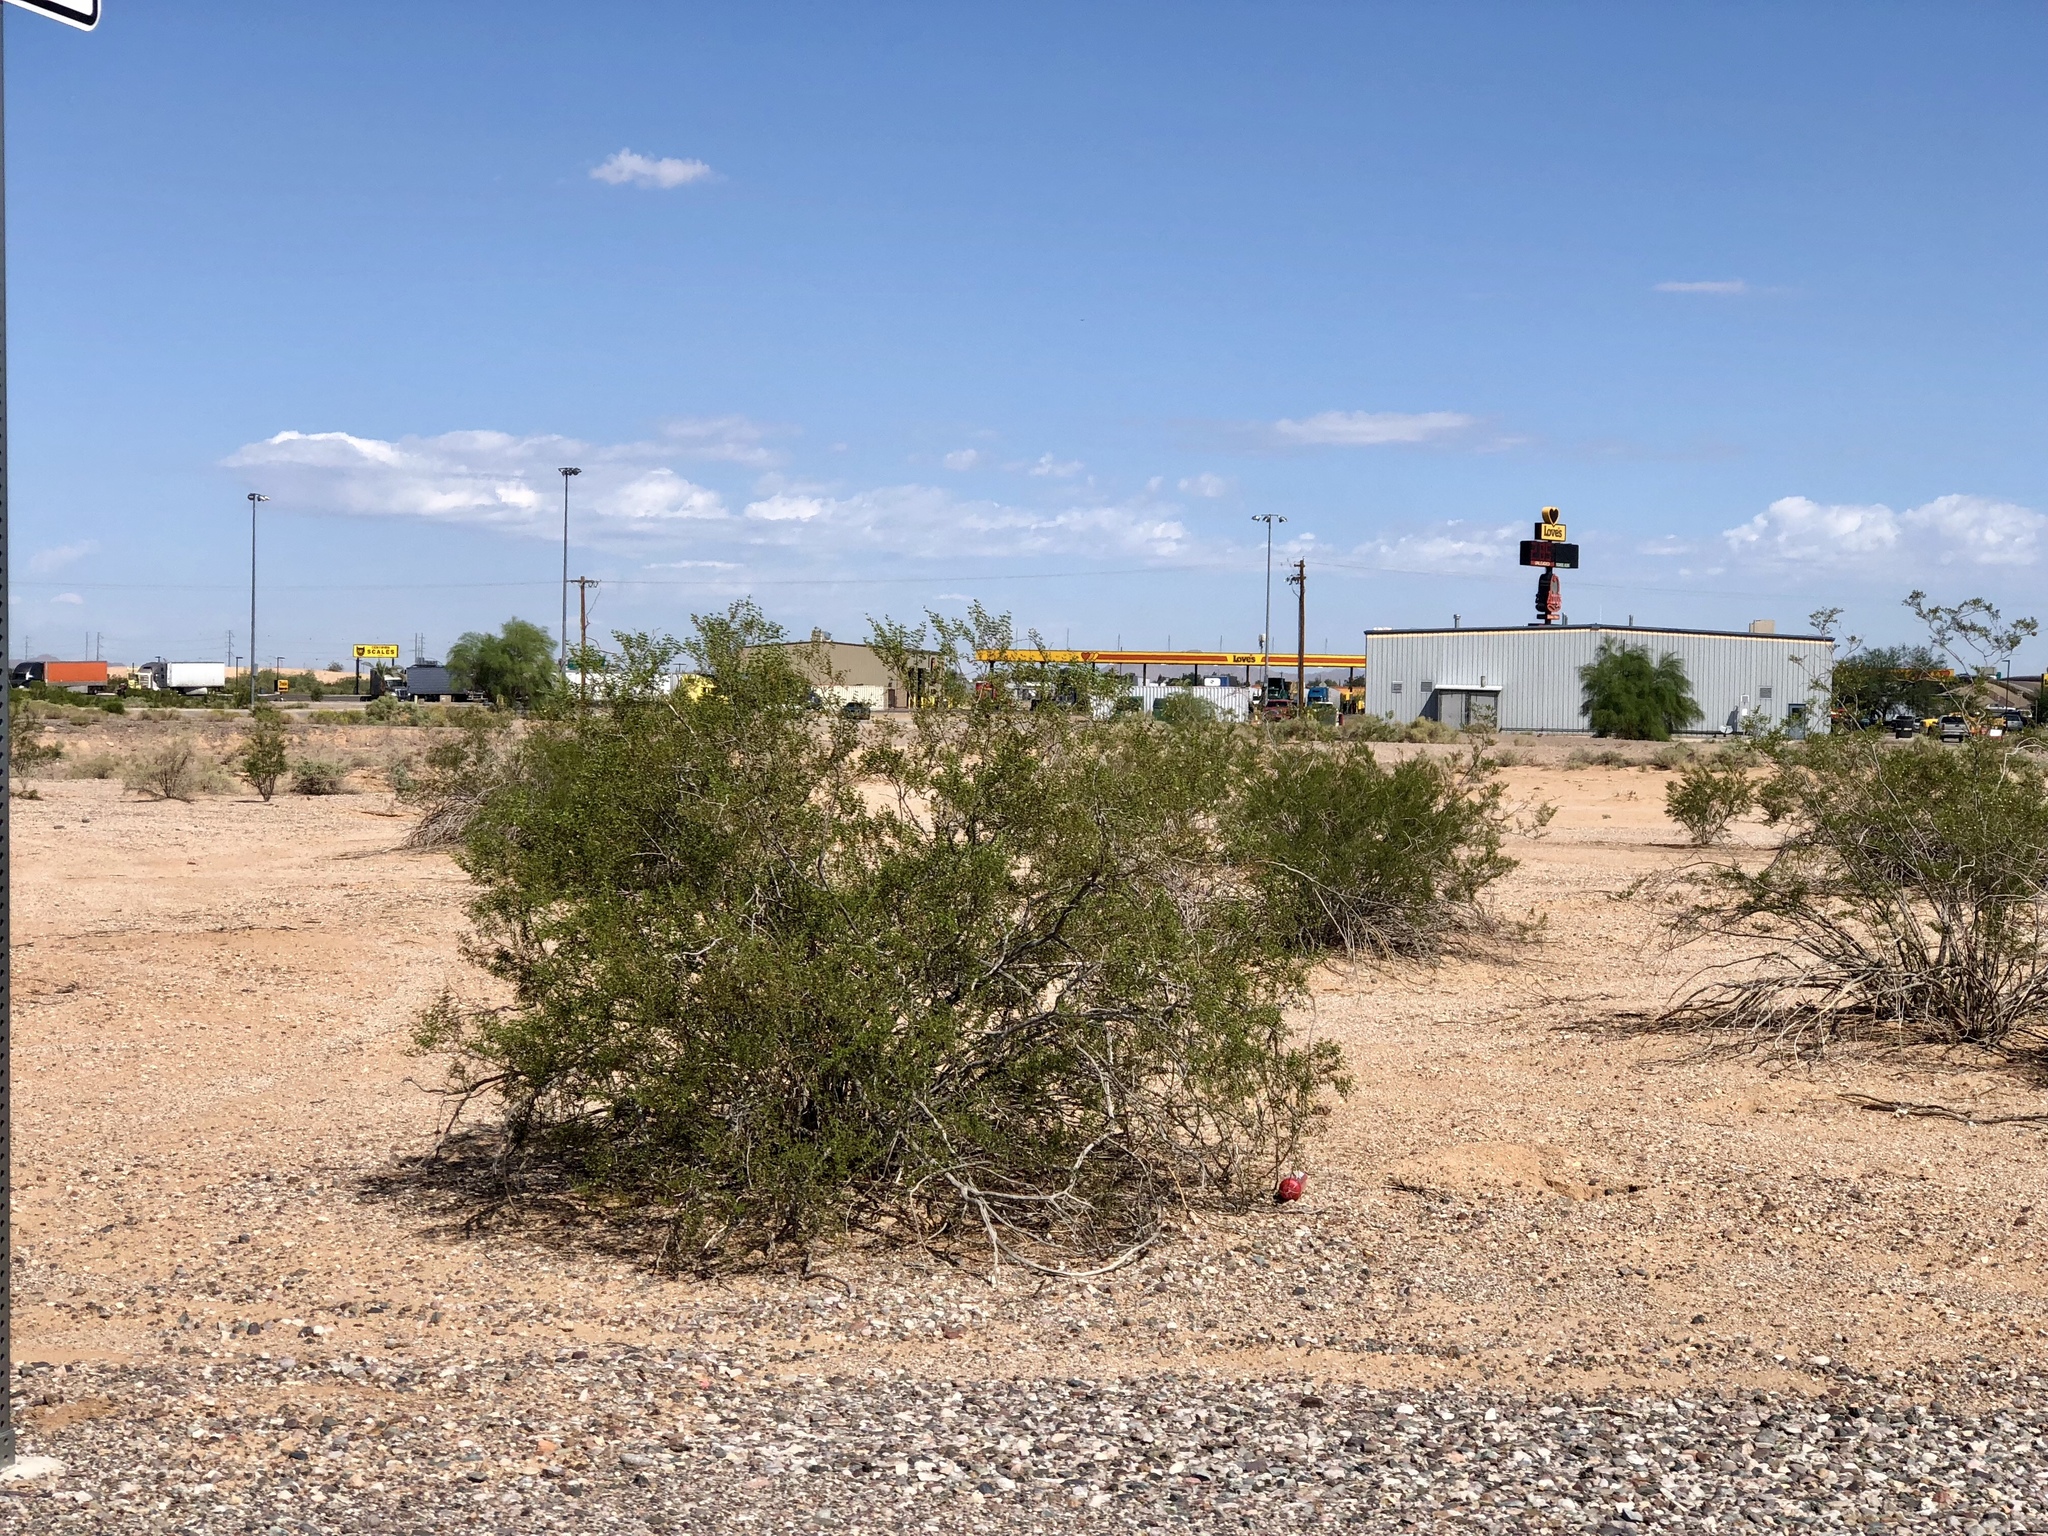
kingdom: Plantae
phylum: Tracheophyta
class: Magnoliopsida
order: Zygophyllales
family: Zygophyllaceae
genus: Larrea
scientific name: Larrea tridentata
